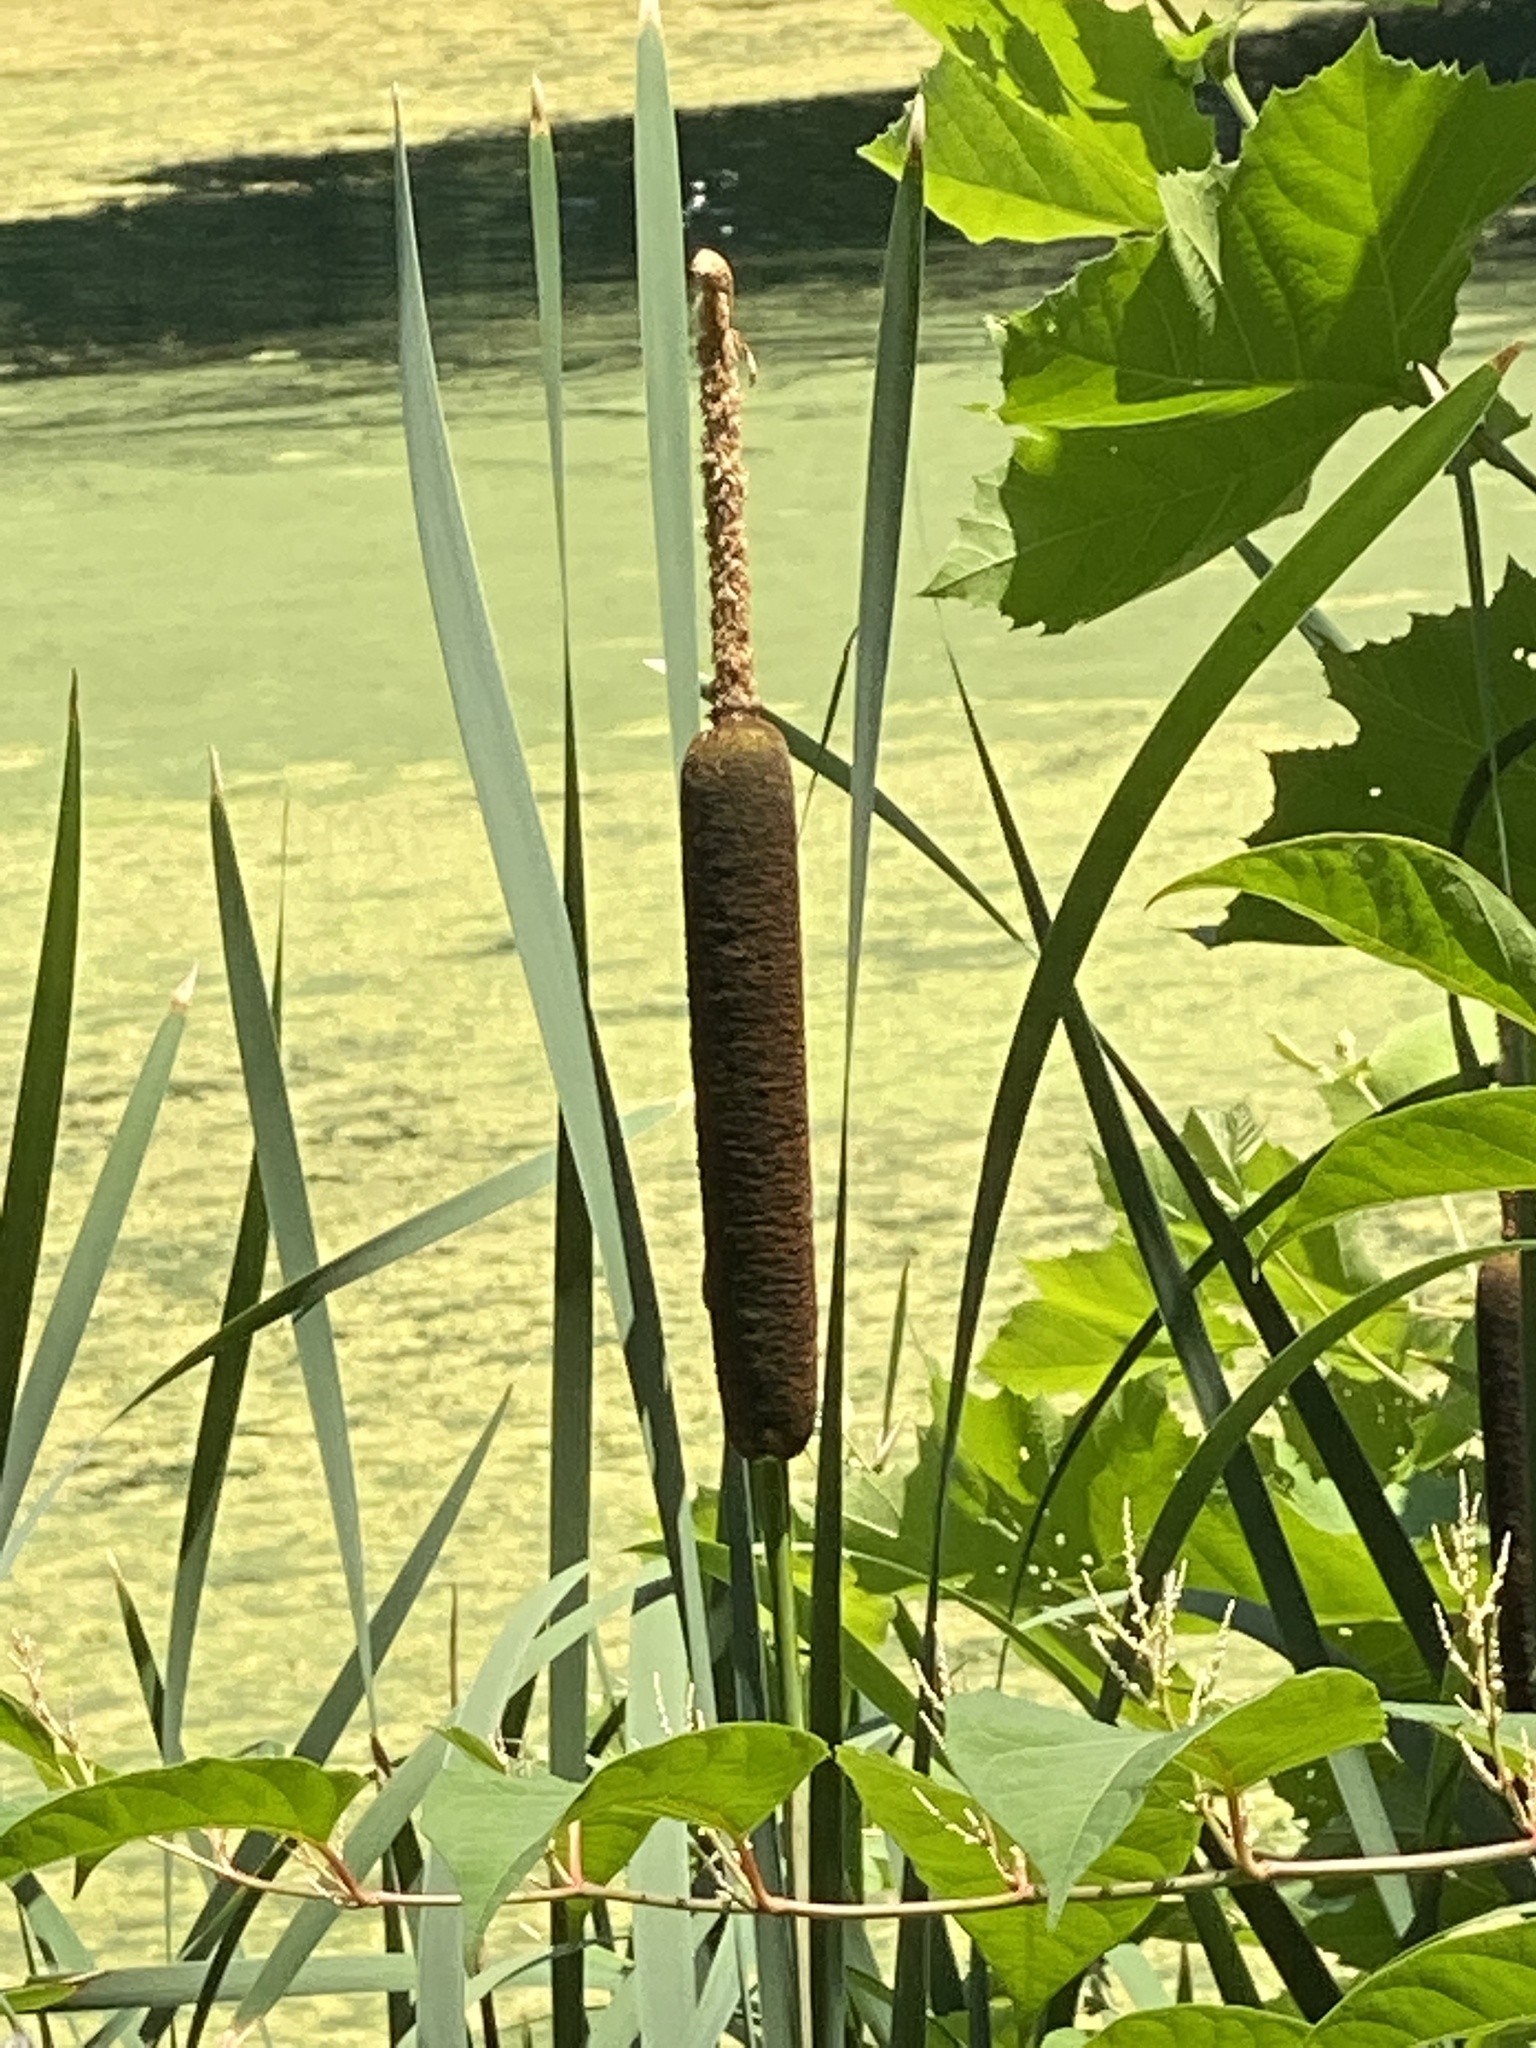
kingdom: Plantae
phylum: Tracheophyta
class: Liliopsida
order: Poales
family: Typhaceae
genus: Typha
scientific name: Typha latifolia
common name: Broadleaf cattail
